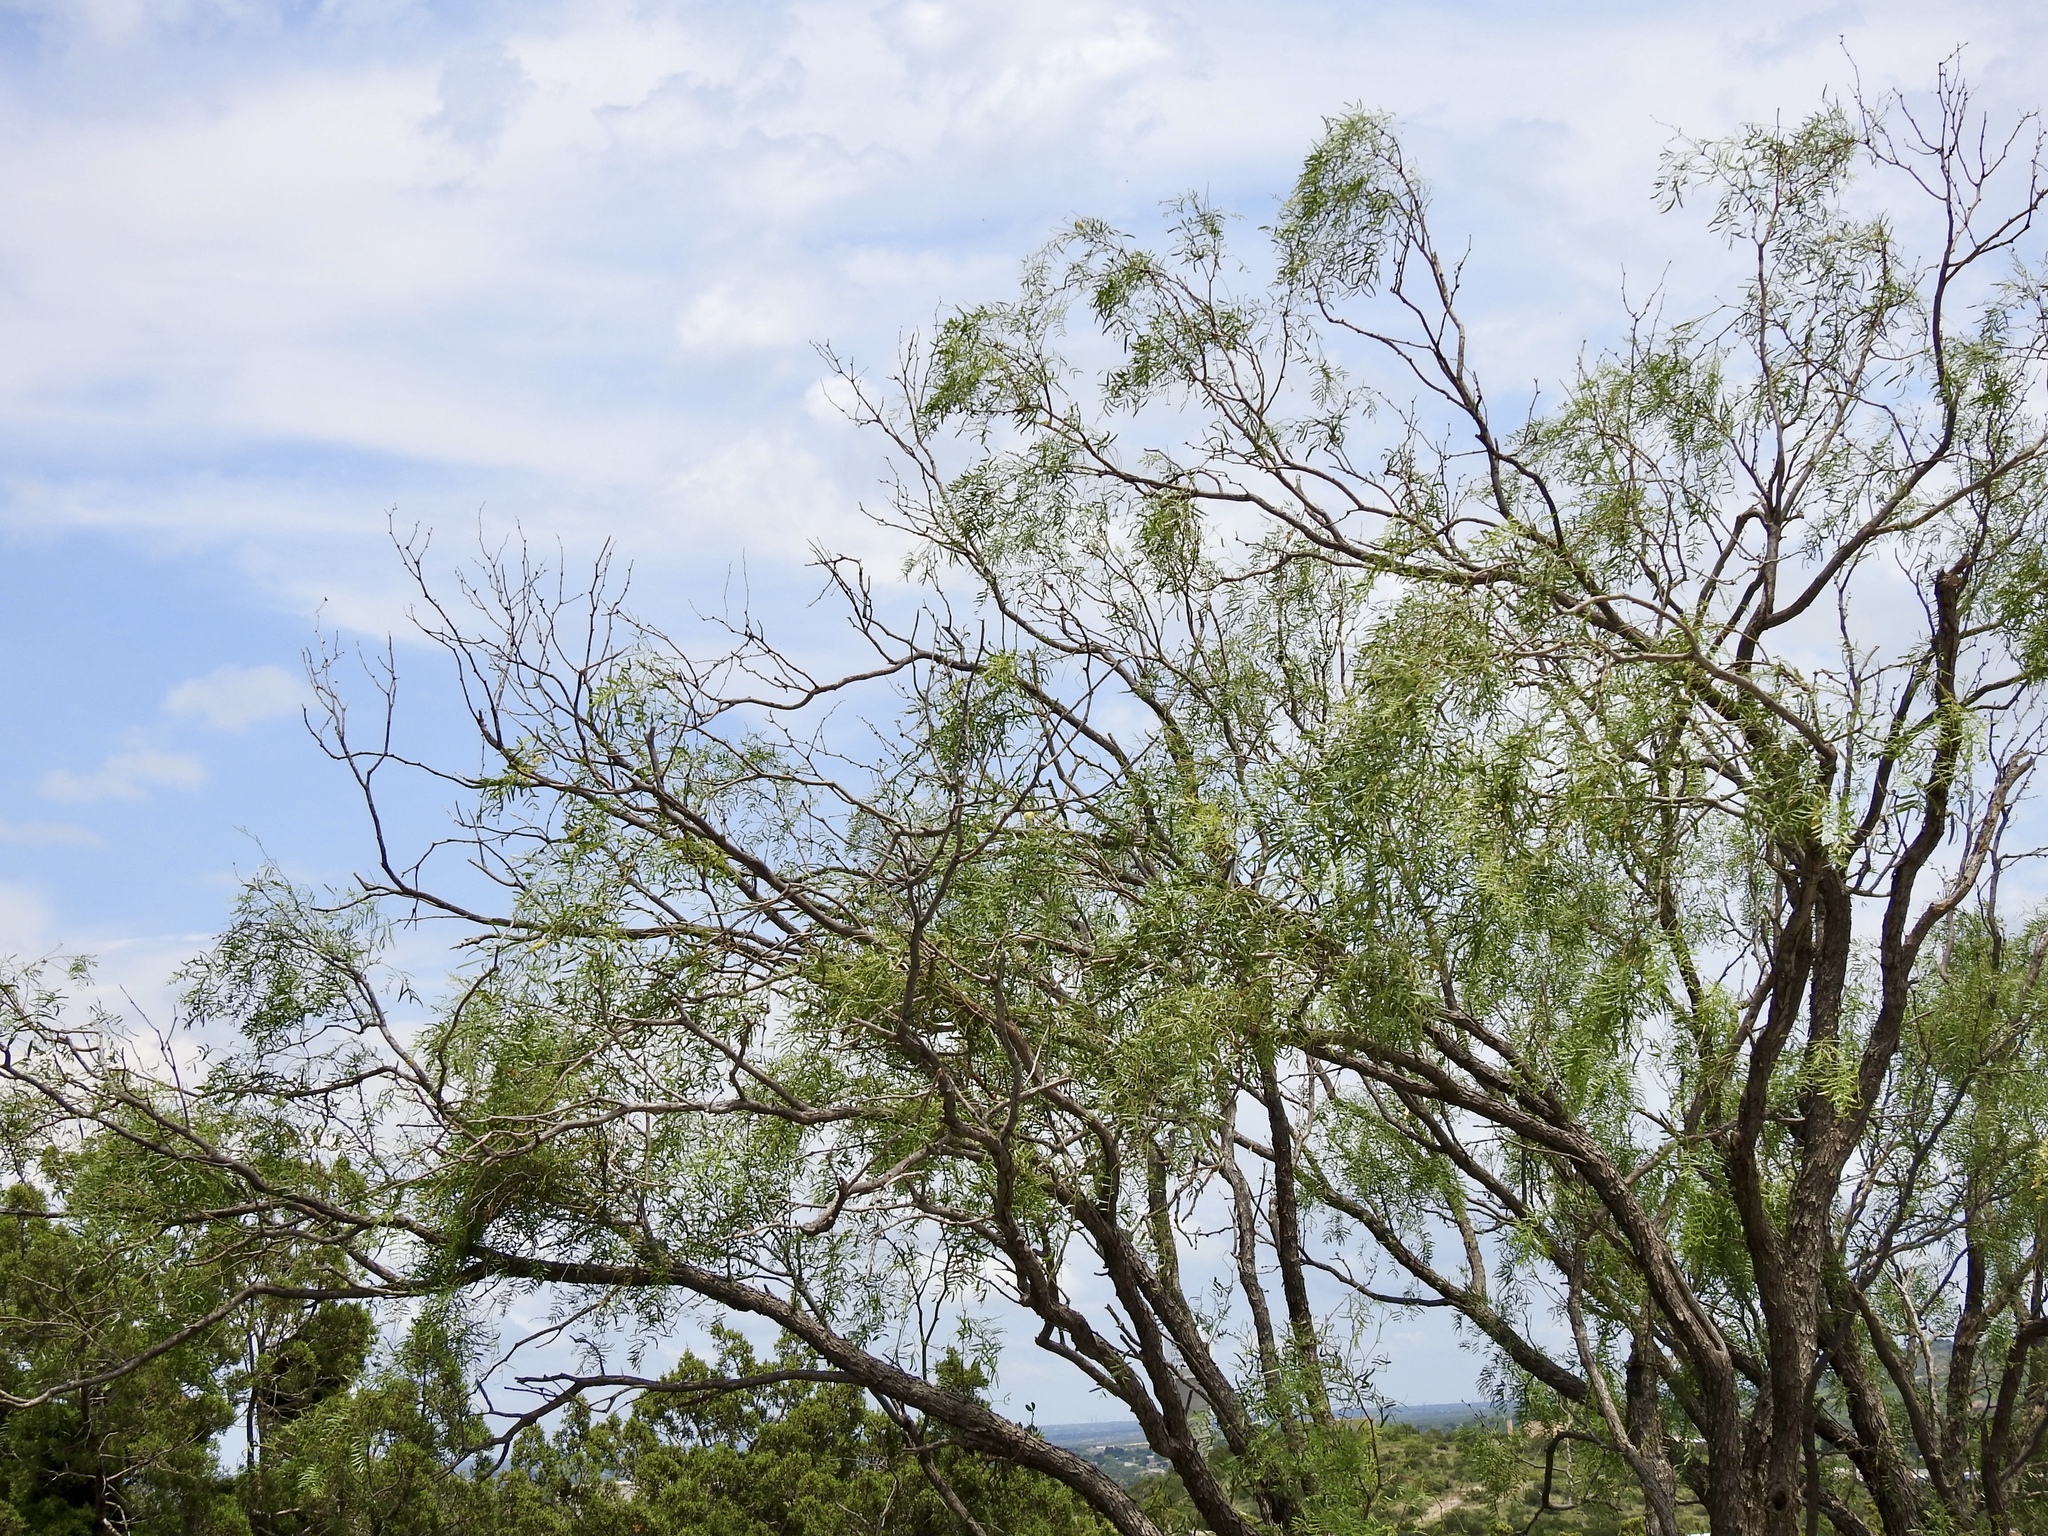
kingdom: Plantae
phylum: Tracheophyta
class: Magnoliopsida
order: Fabales
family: Fabaceae
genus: Prosopis
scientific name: Prosopis glandulosa
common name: Honey mesquite
